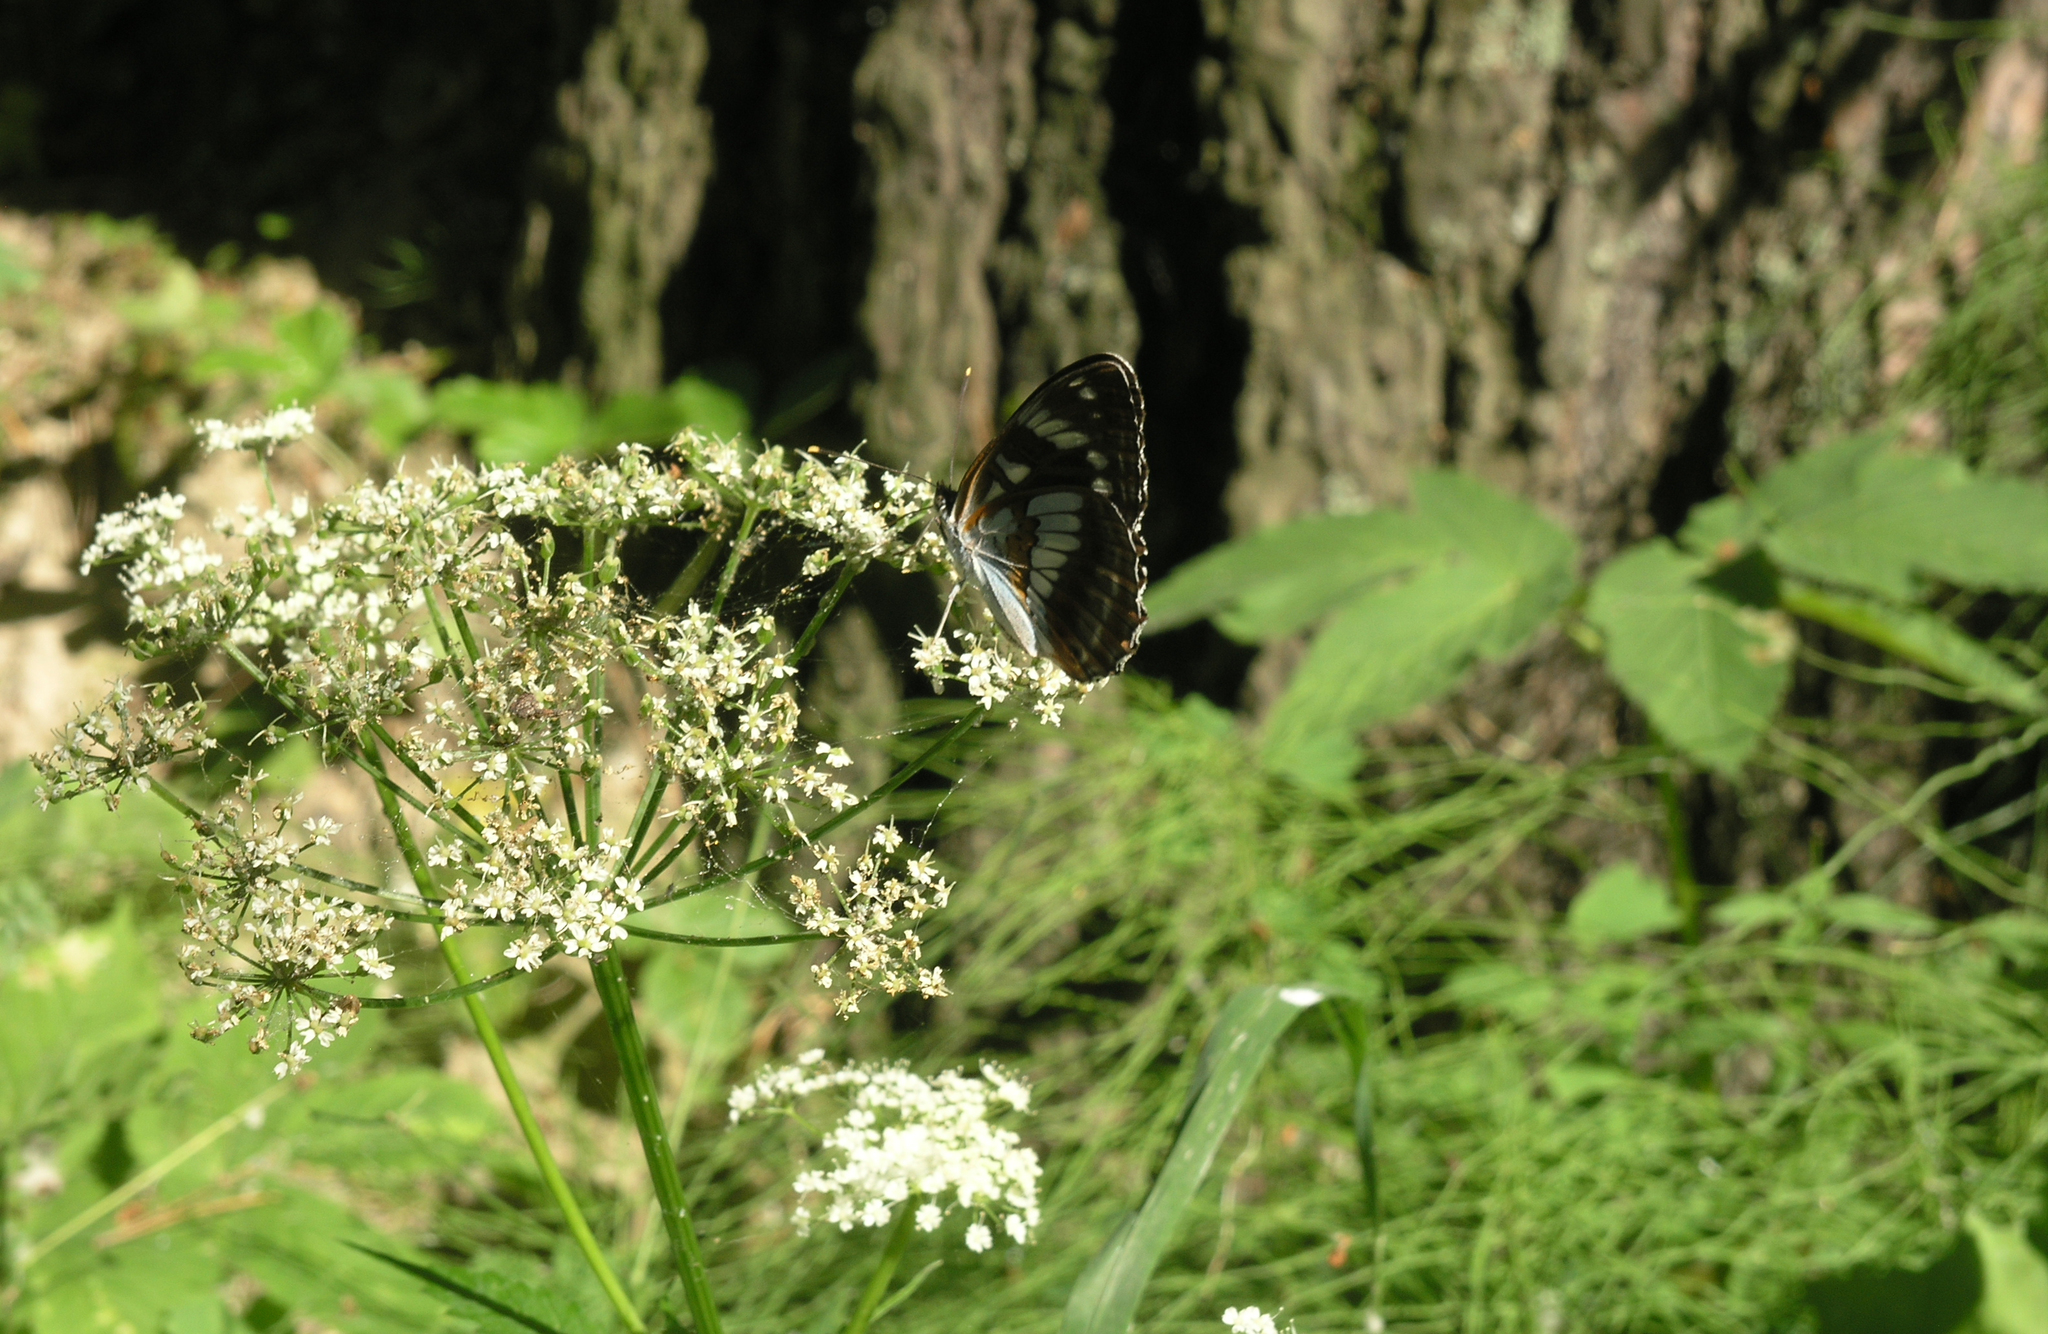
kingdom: Plantae
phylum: Tracheophyta
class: Magnoliopsida
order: Apiales
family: Apiaceae
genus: Aegopodium
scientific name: Aegopodium podagraria
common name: Ground-elder
